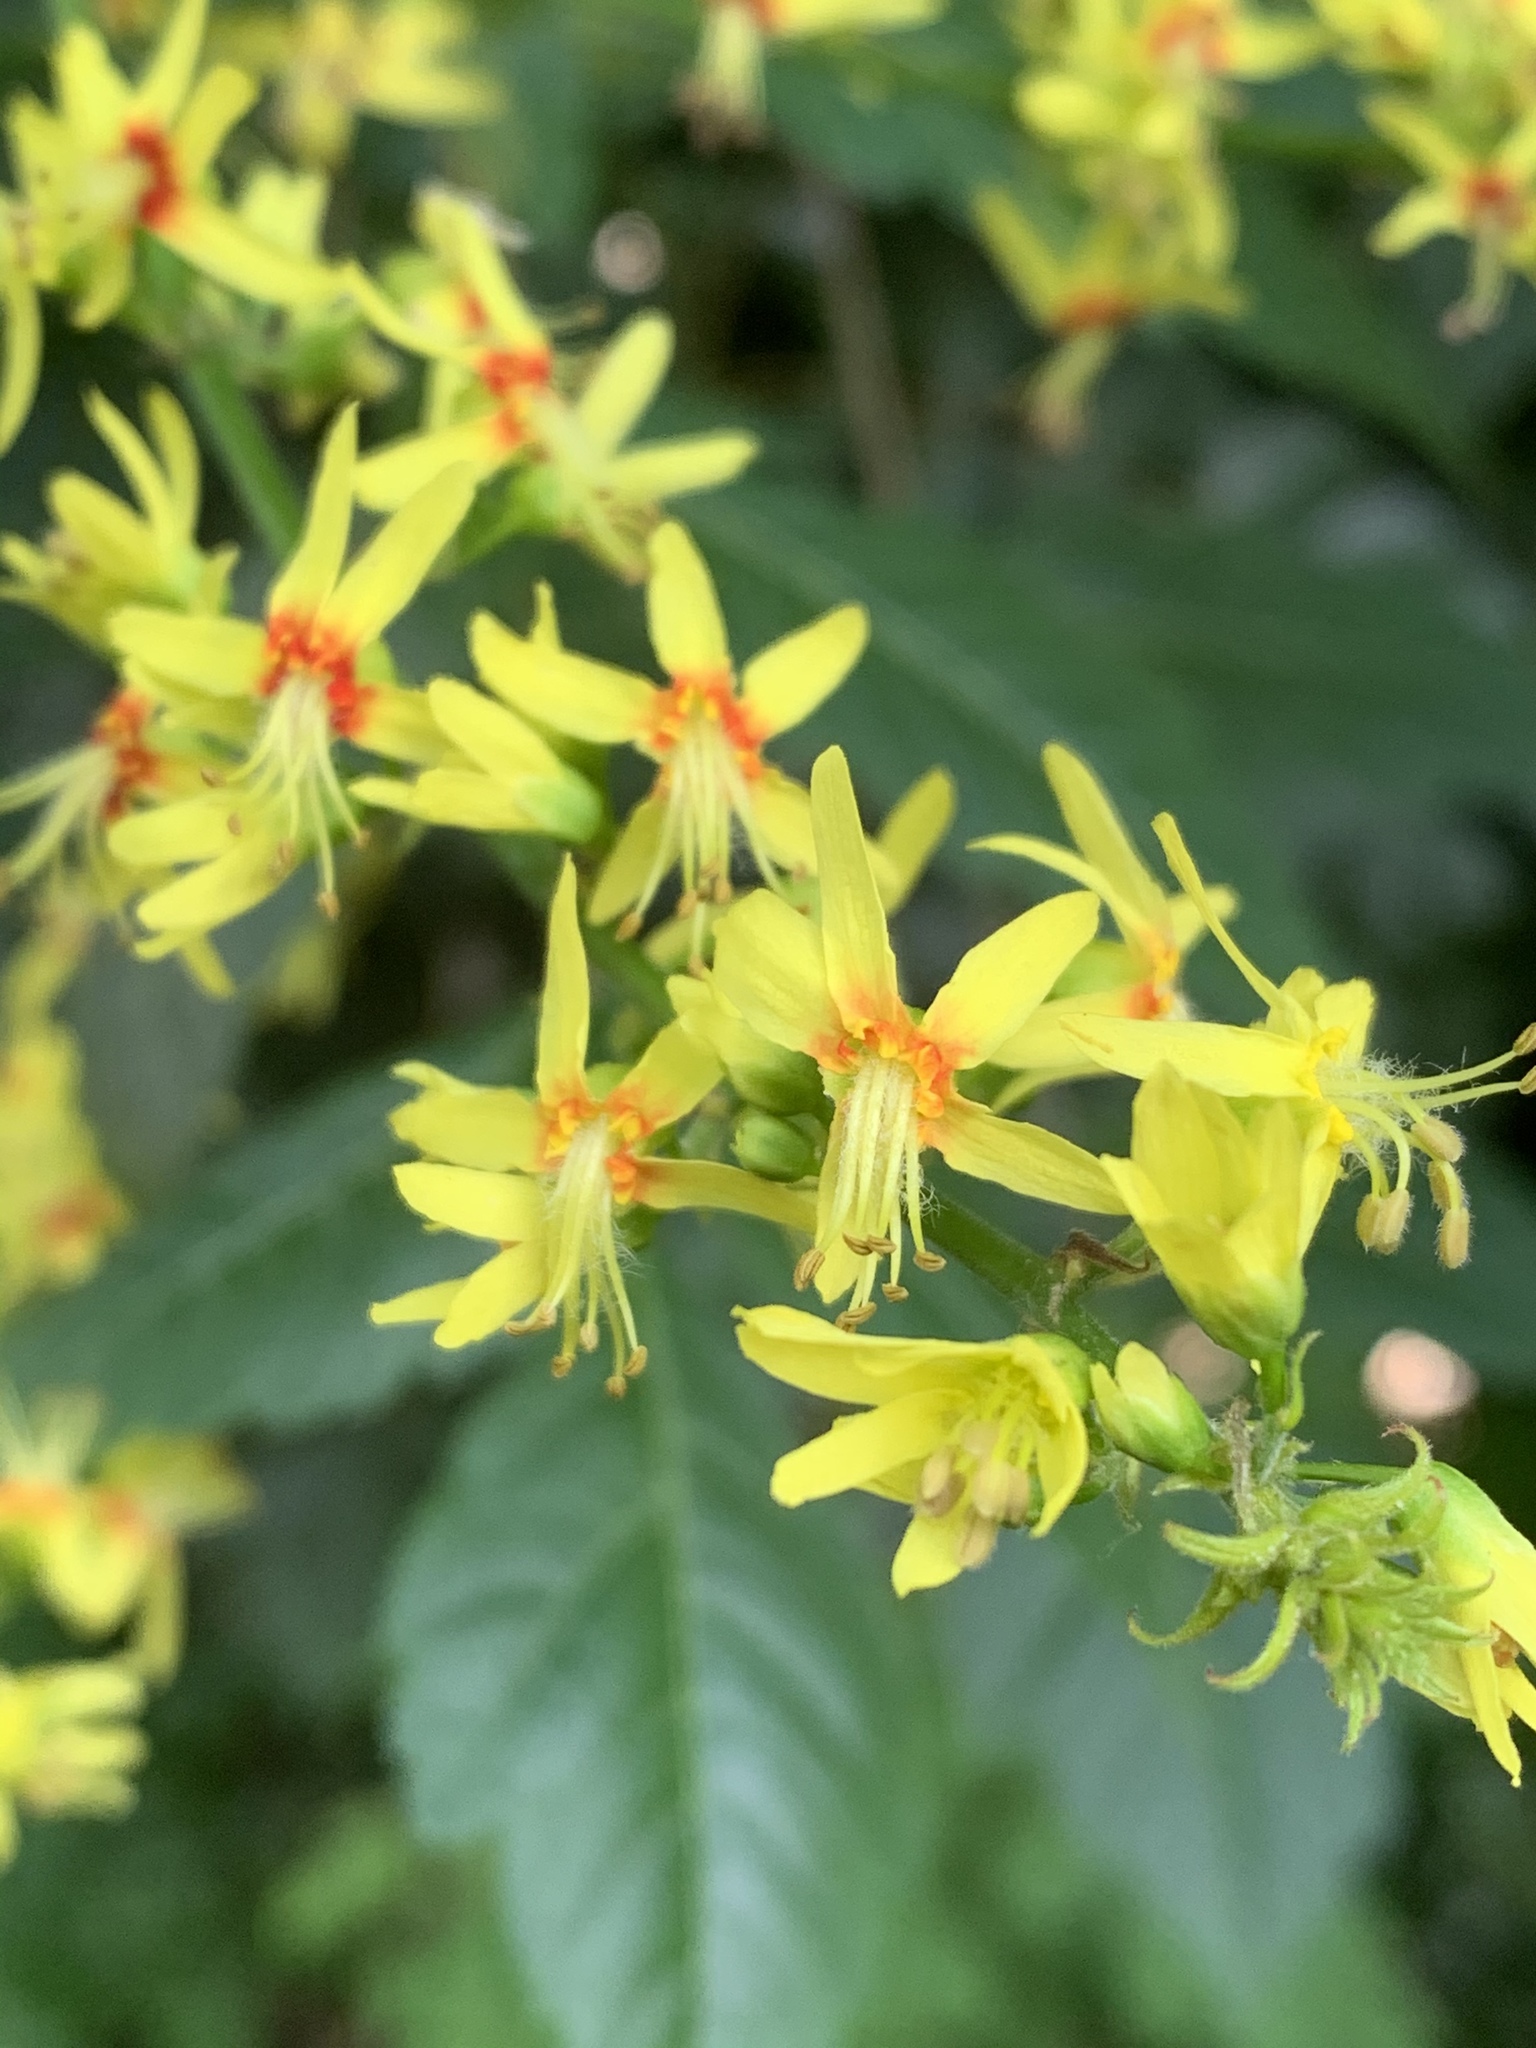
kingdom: Plantae
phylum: Tracheophyta
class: Magnoliopsida
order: Sapindales
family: Sapindaceae
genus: Koelreuteria
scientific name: Koelreuteria paniculata
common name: Pride-of-india
